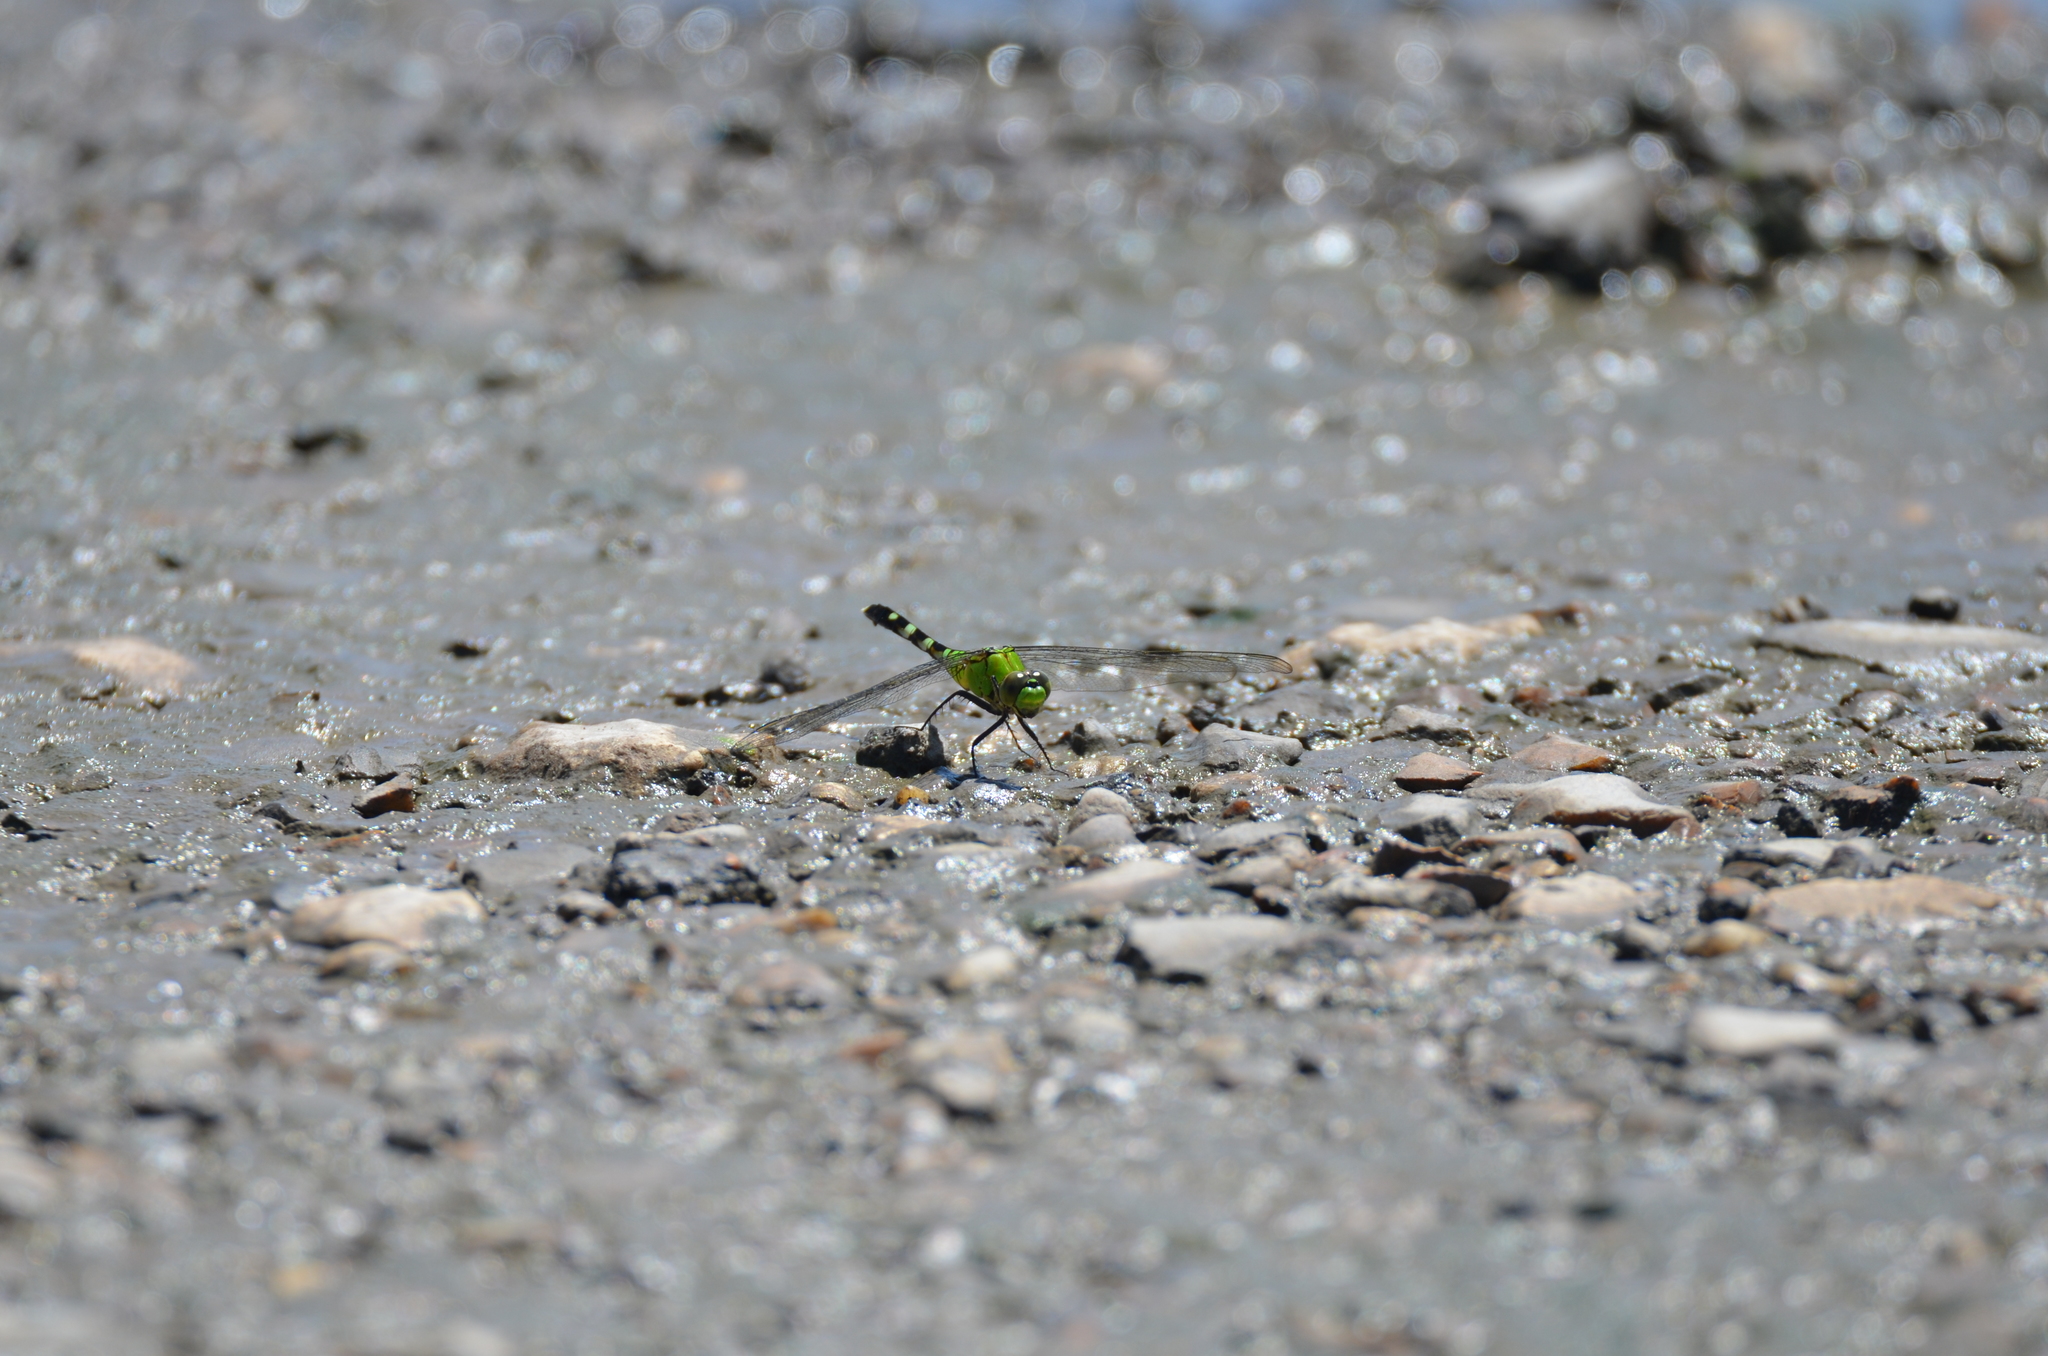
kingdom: Animalia
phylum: Arthropoda
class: Insecta
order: Odonata
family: Libellulidae
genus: Erythemis
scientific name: Erythemis simplicicollis
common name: Eastern pondhawk
